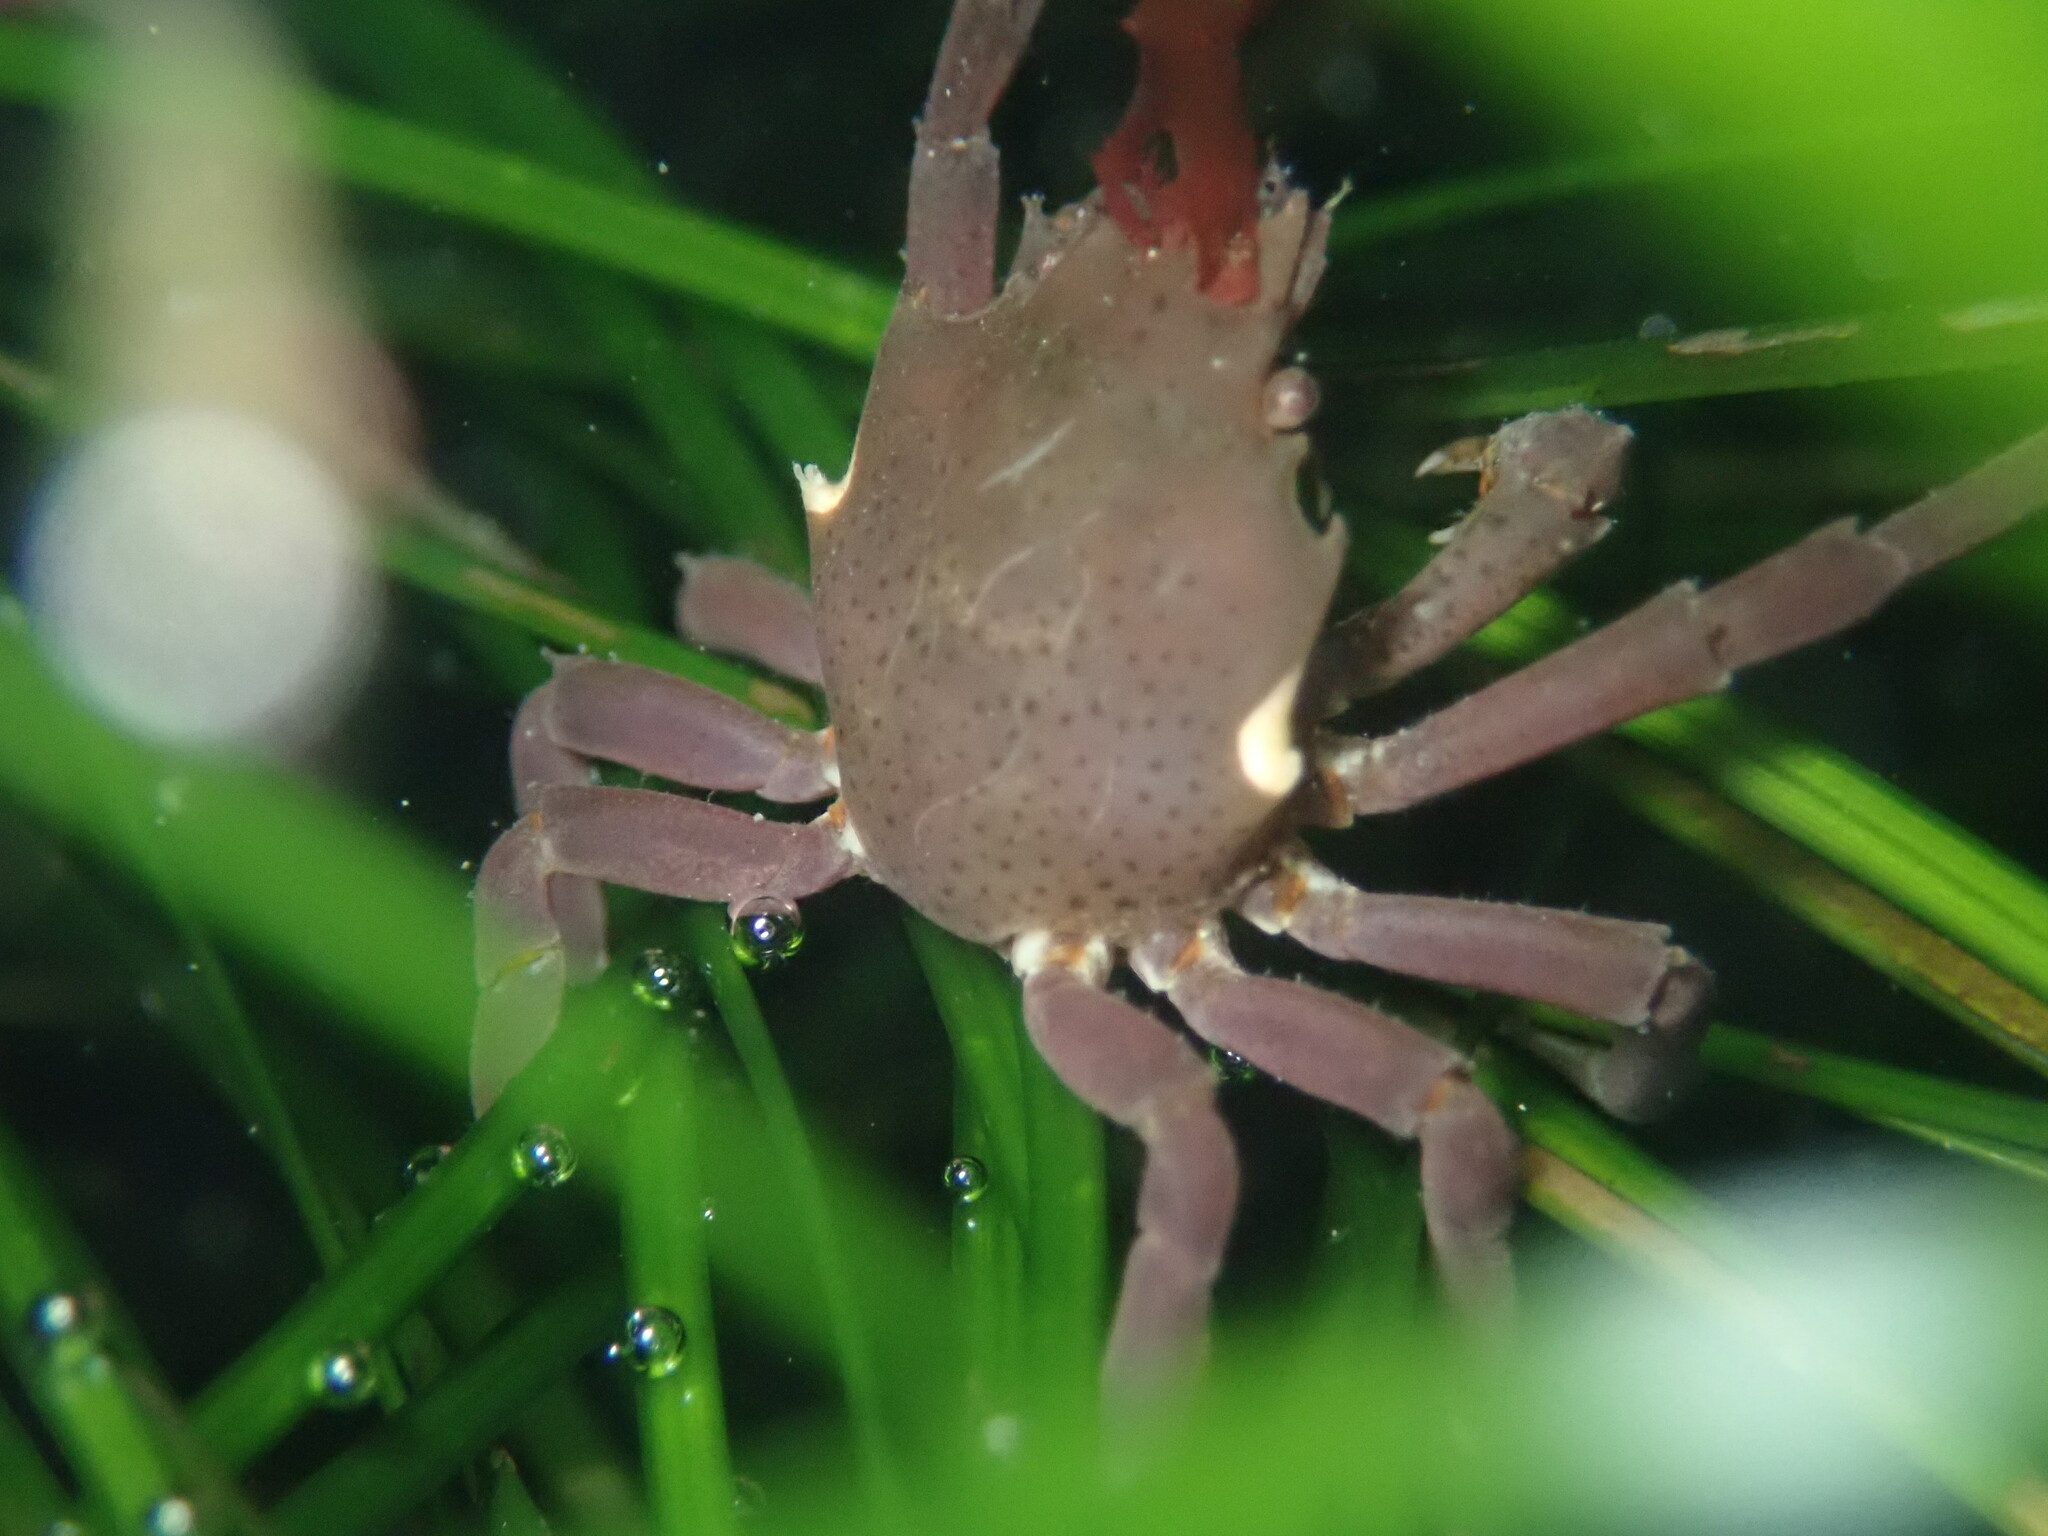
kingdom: Animalia
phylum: Arthropoda
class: Malacostraca
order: Decapoda
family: Epialtidae
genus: Pugettia
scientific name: Pugettia producta
